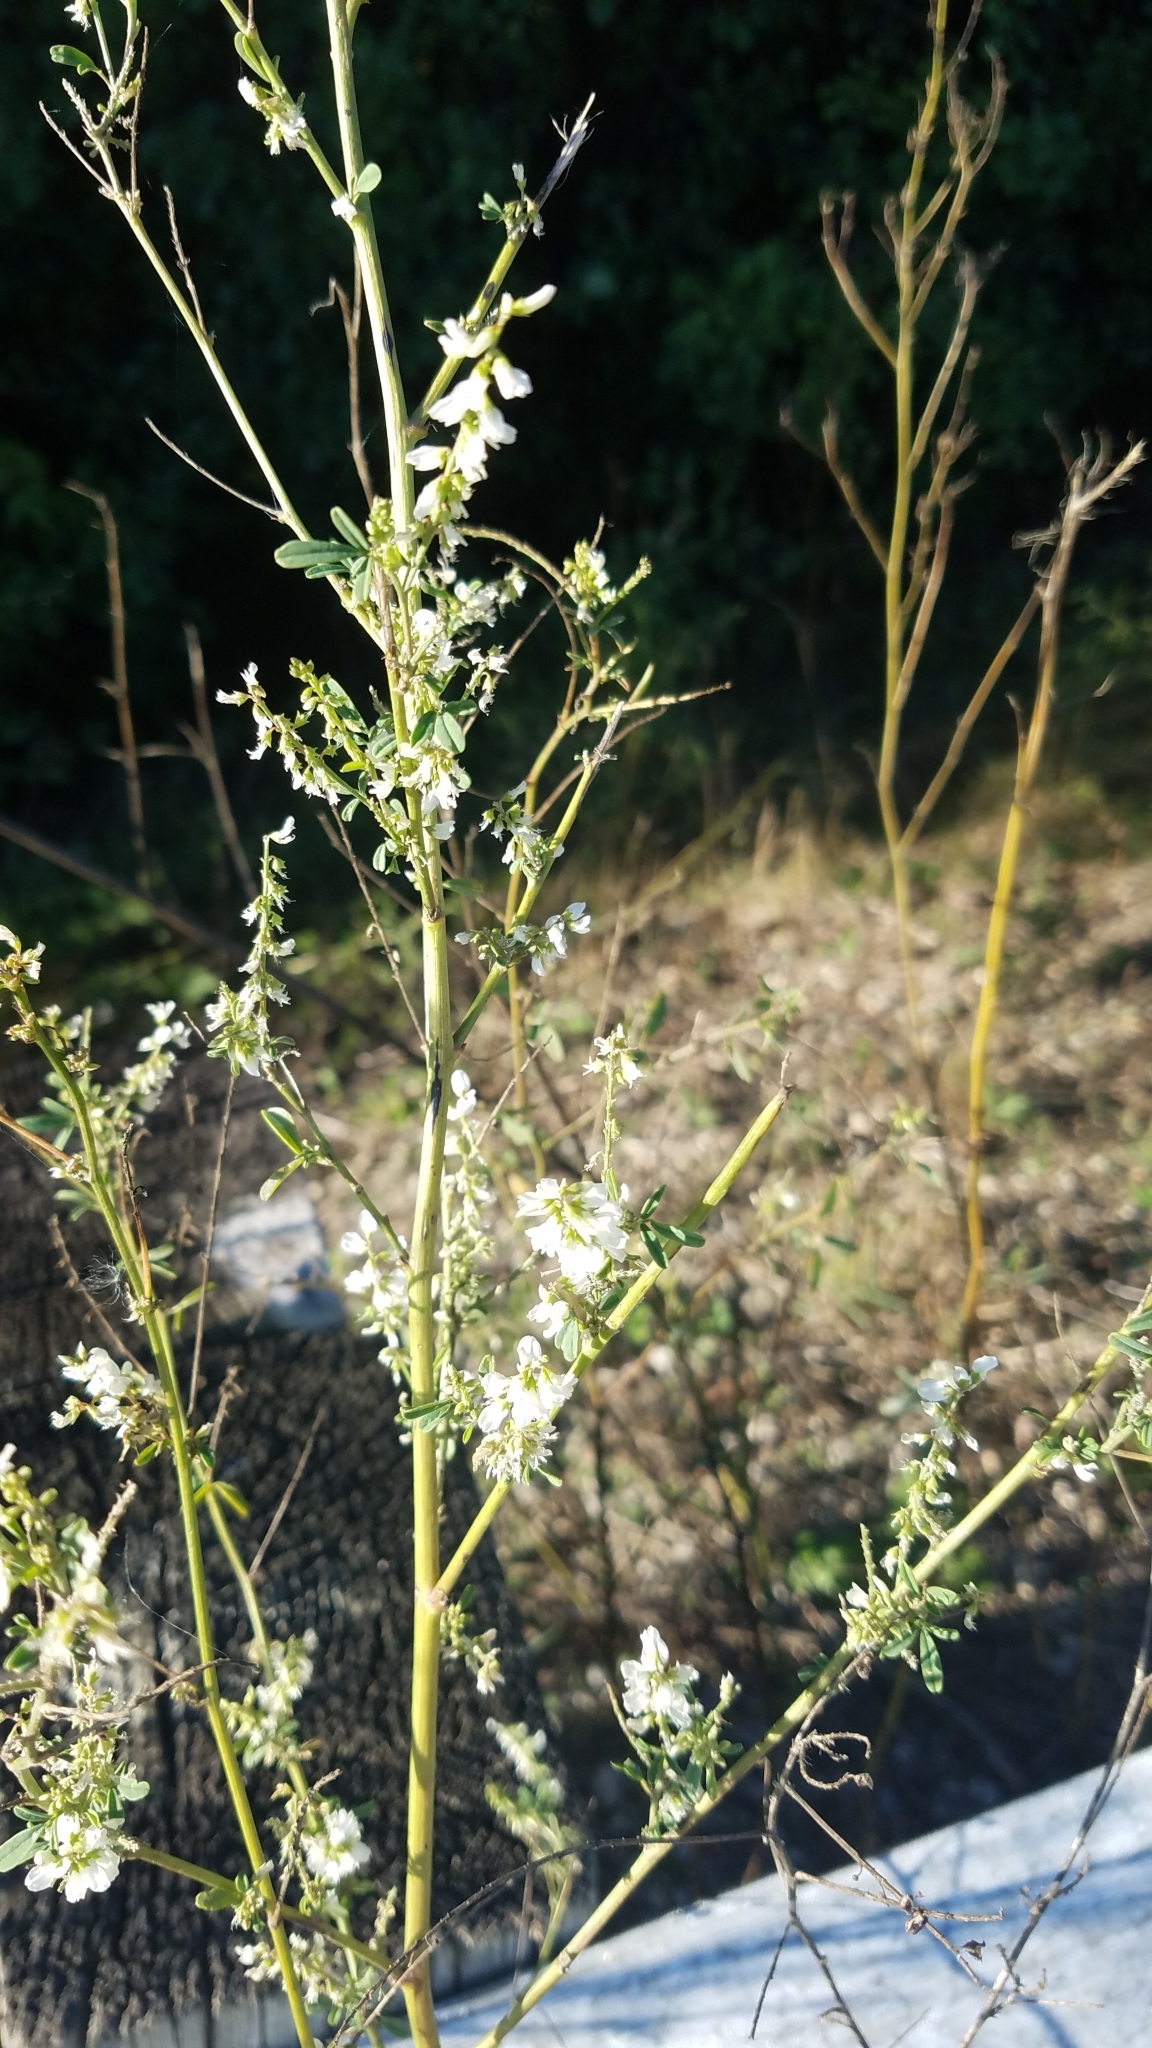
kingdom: Plantae
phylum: Tracheophyta
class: Magnoliopsida
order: Fabales
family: Fabaceae
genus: Melilotus
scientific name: Melilotus albus
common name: White melilot
